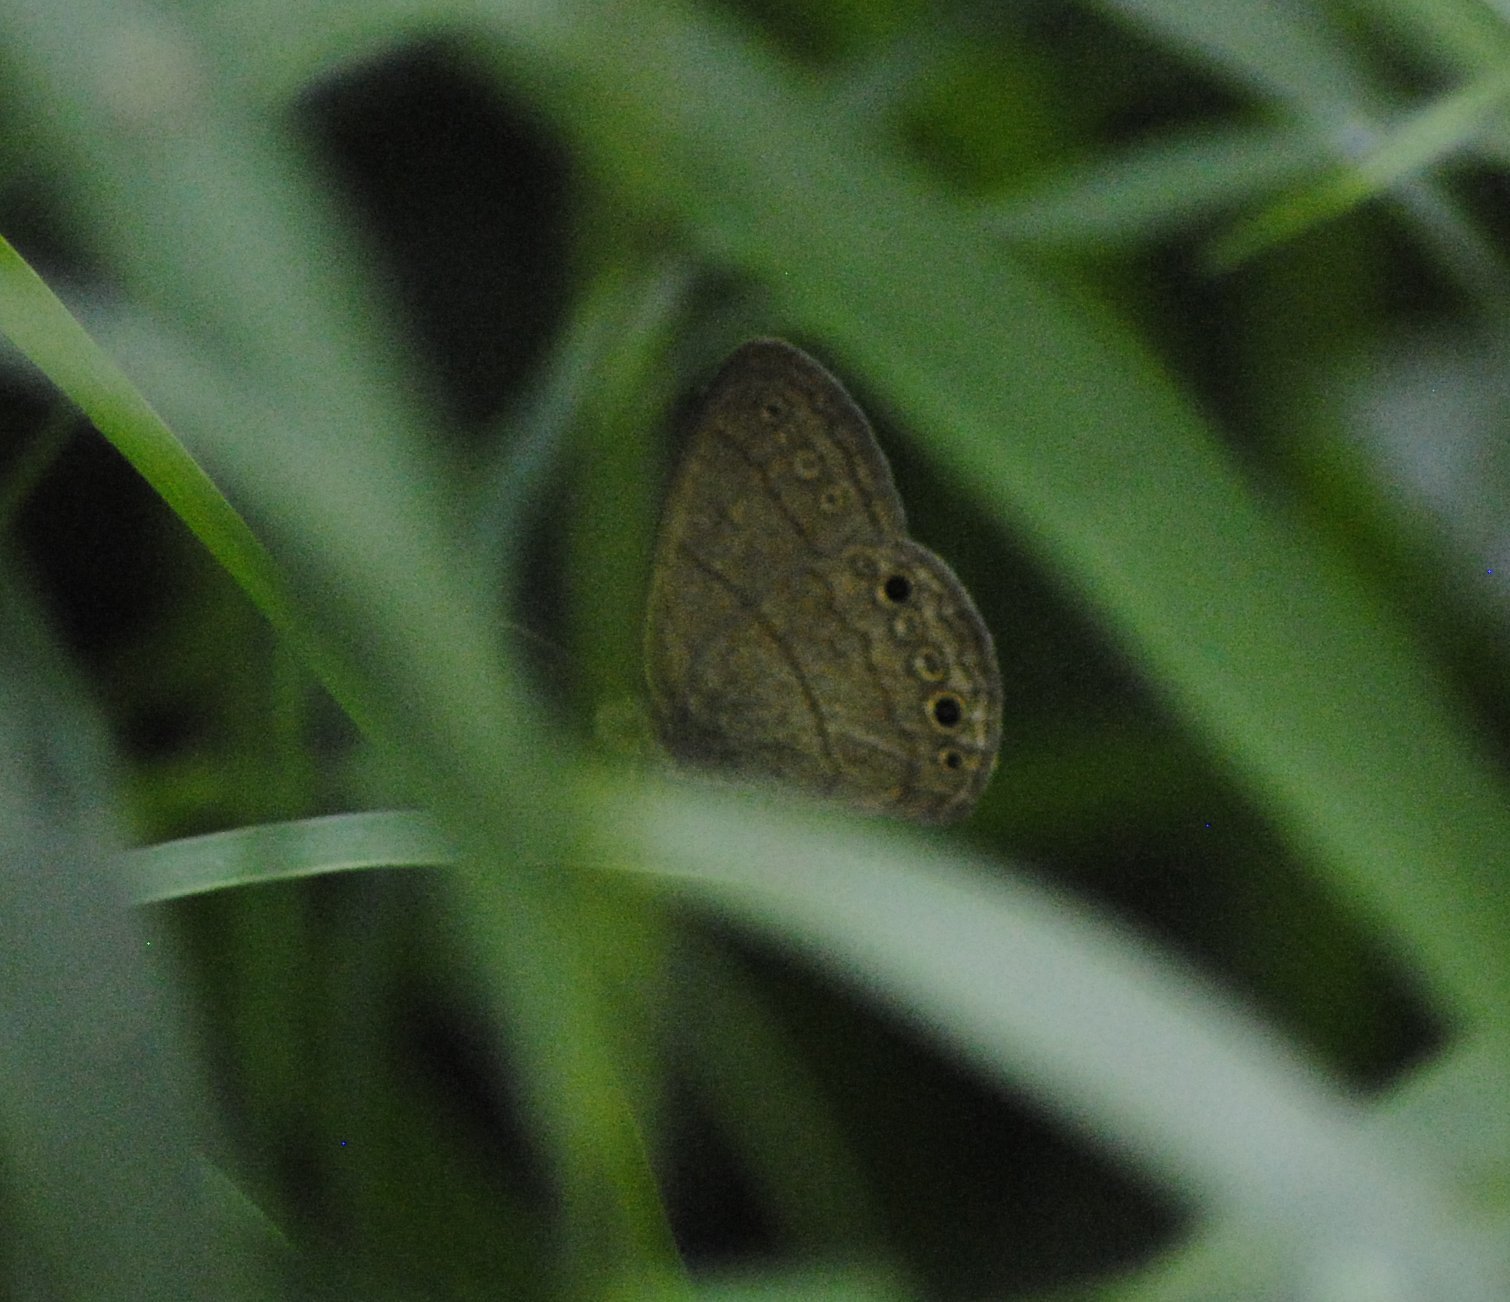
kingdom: Animalia
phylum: Arthropoda
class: Insecta
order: Lepidoptera
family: Nymphalidae
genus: Hermeuptychia
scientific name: Hermeuptychia hermybius
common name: South texas satyr
